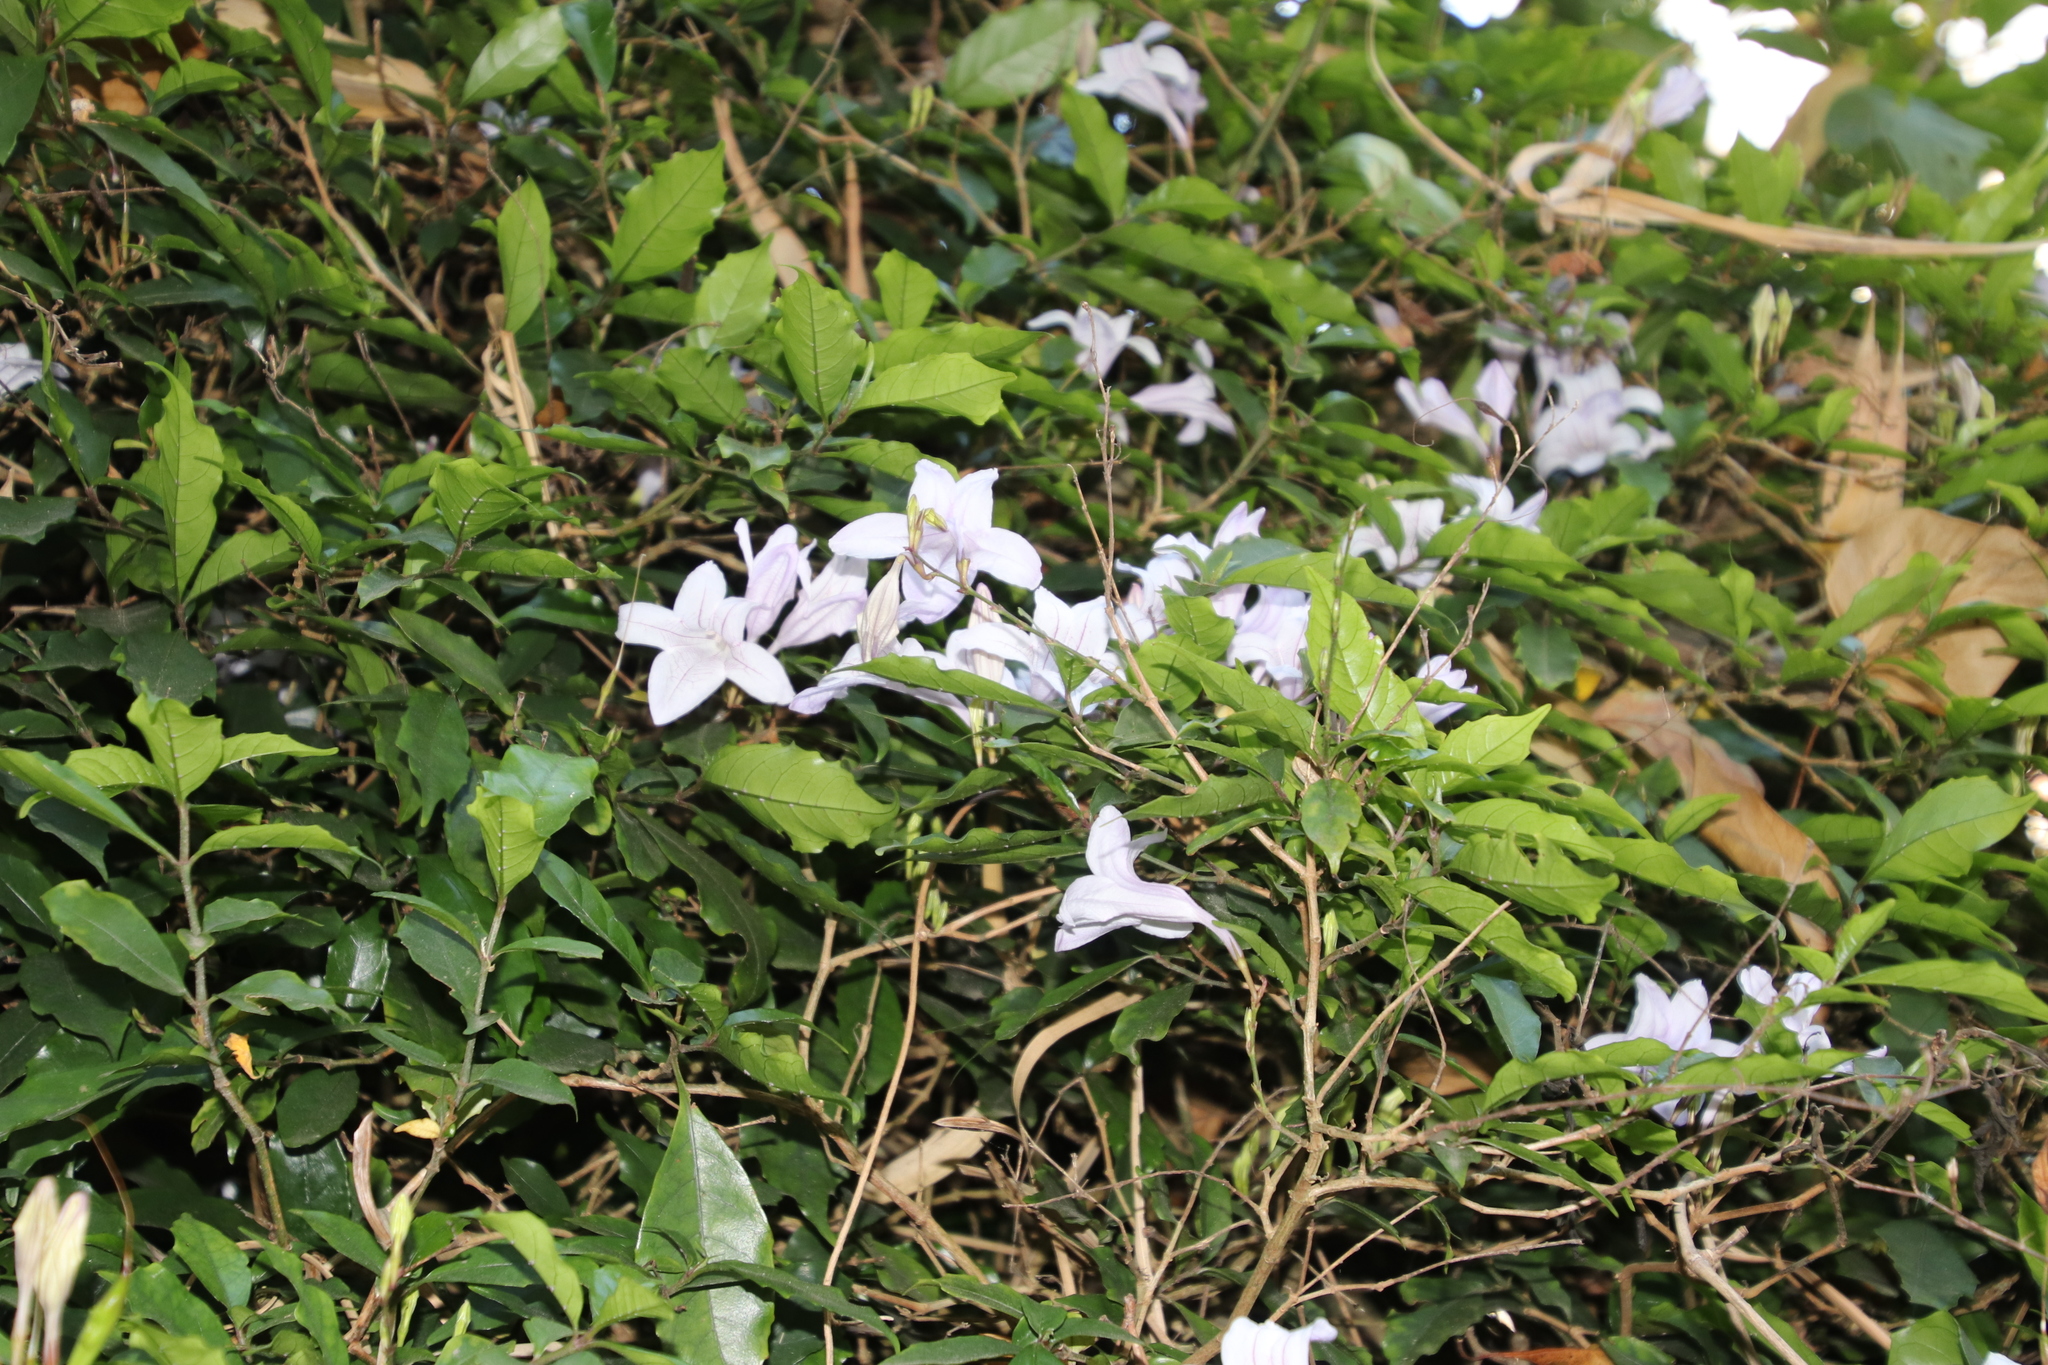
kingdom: Plantae
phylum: Tracheophyta
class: Magnoliopsida
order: Lamiales
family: Acanthaceae
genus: Mackaya
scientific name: Mackaya bella
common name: Forest bell-bush
